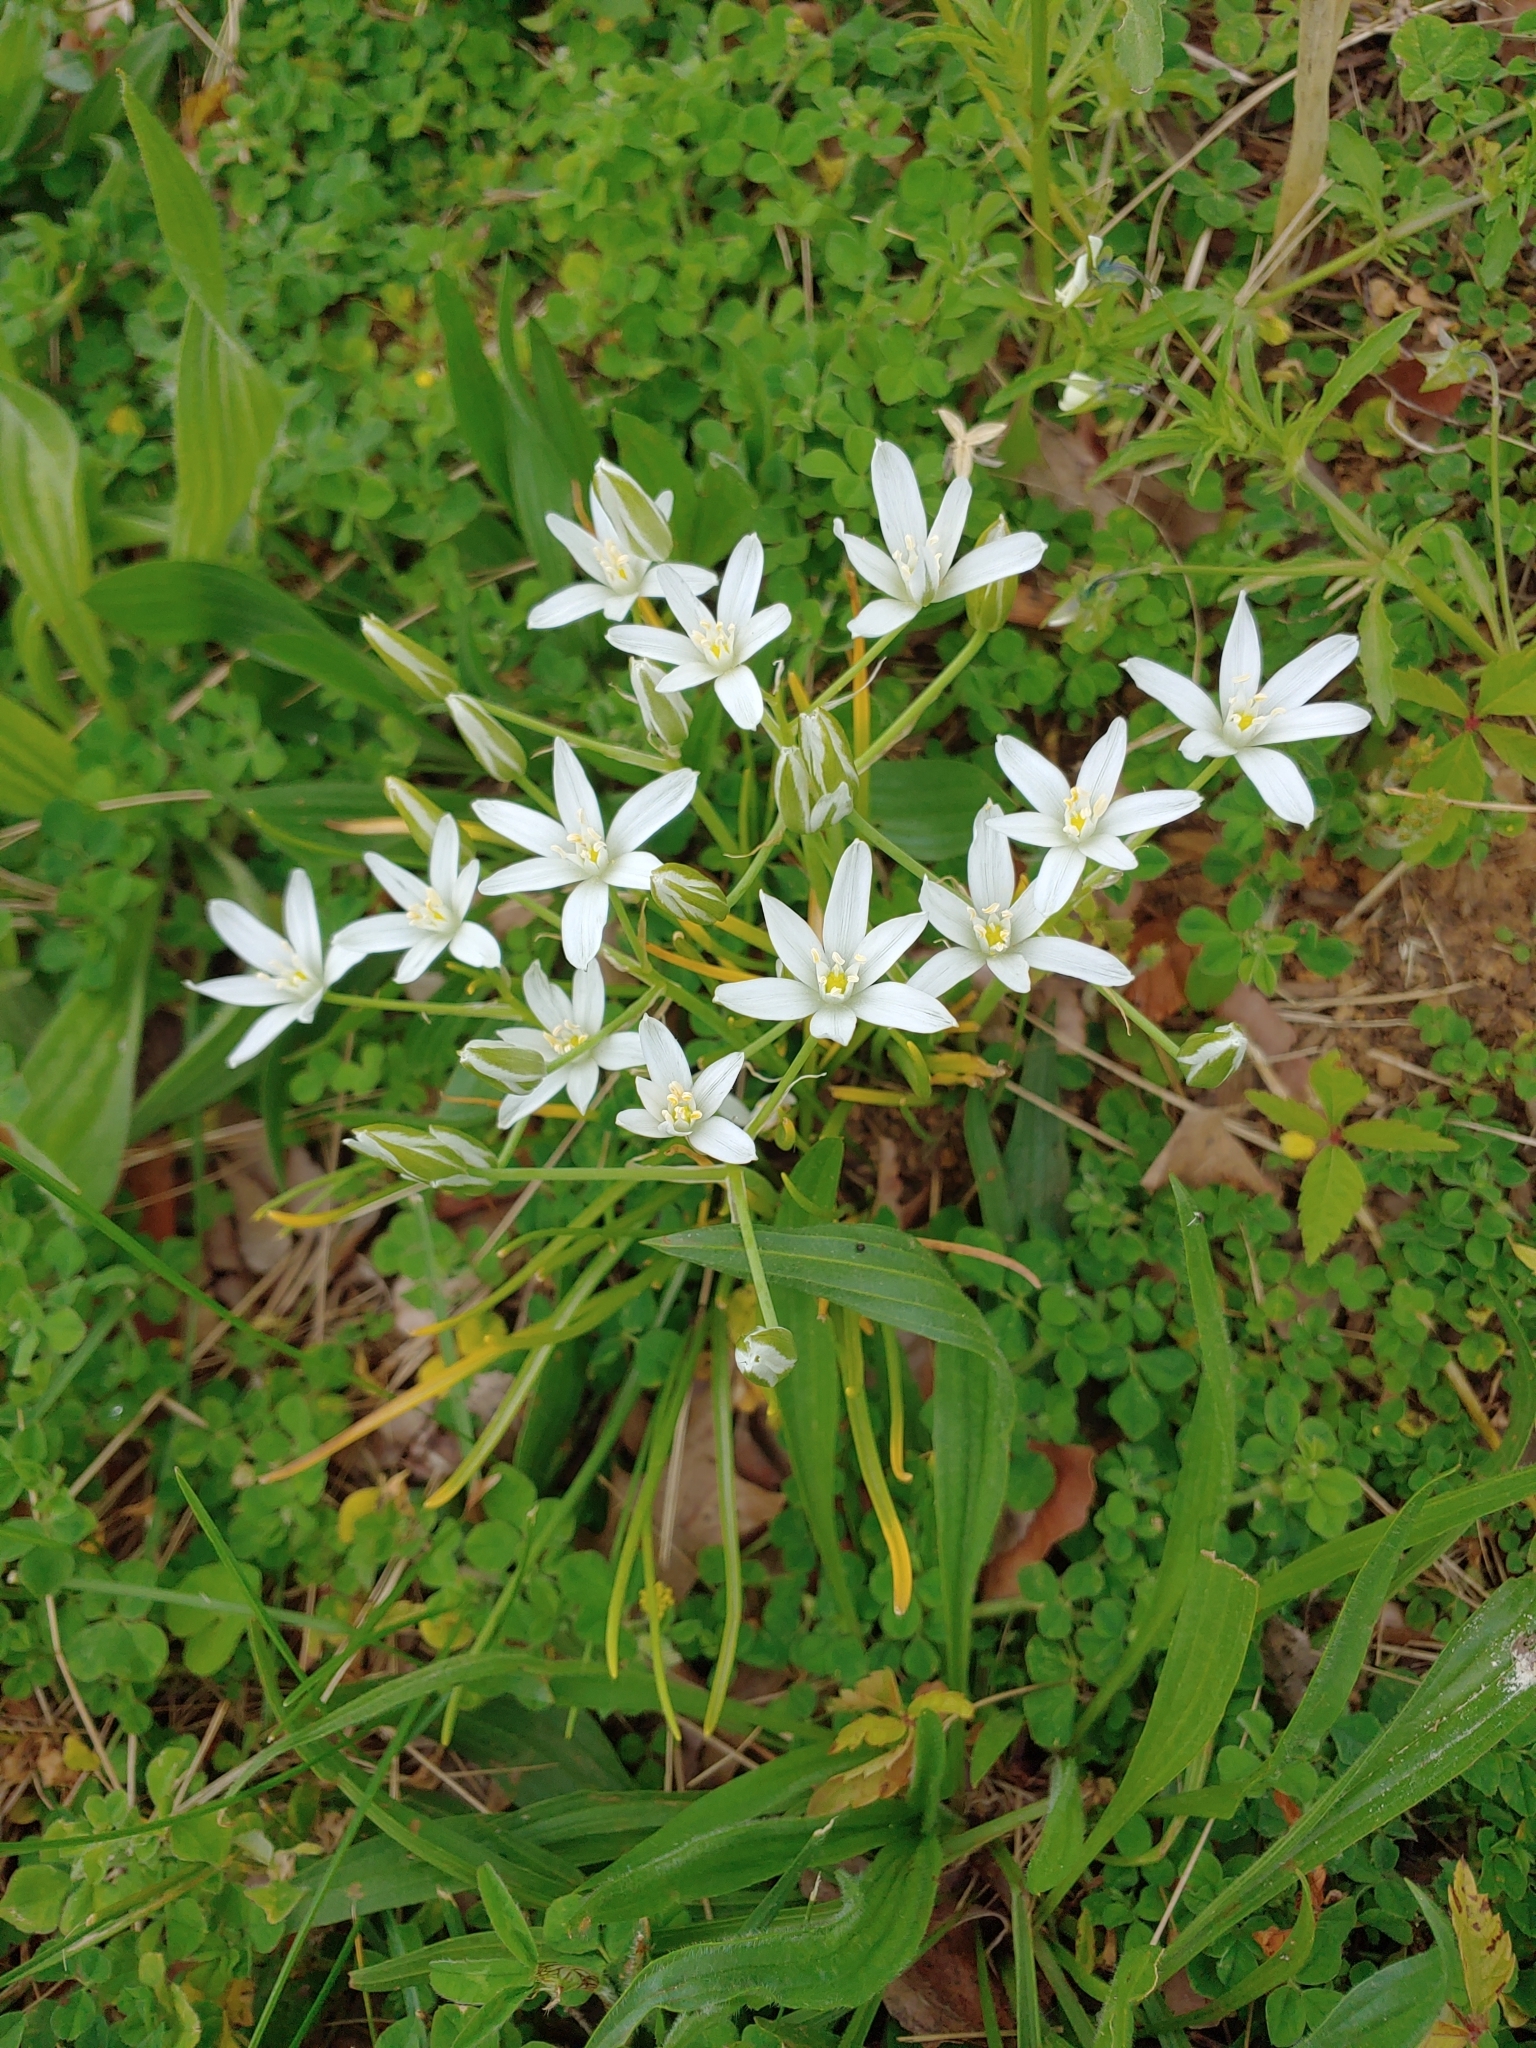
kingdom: Plantae
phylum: Tracheophyta
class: Liliopsida
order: Asparagales
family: Asparagaceae
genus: Ornithogalum
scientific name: Ornithogalum umbellatum
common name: Garden star-of-bethlehem
